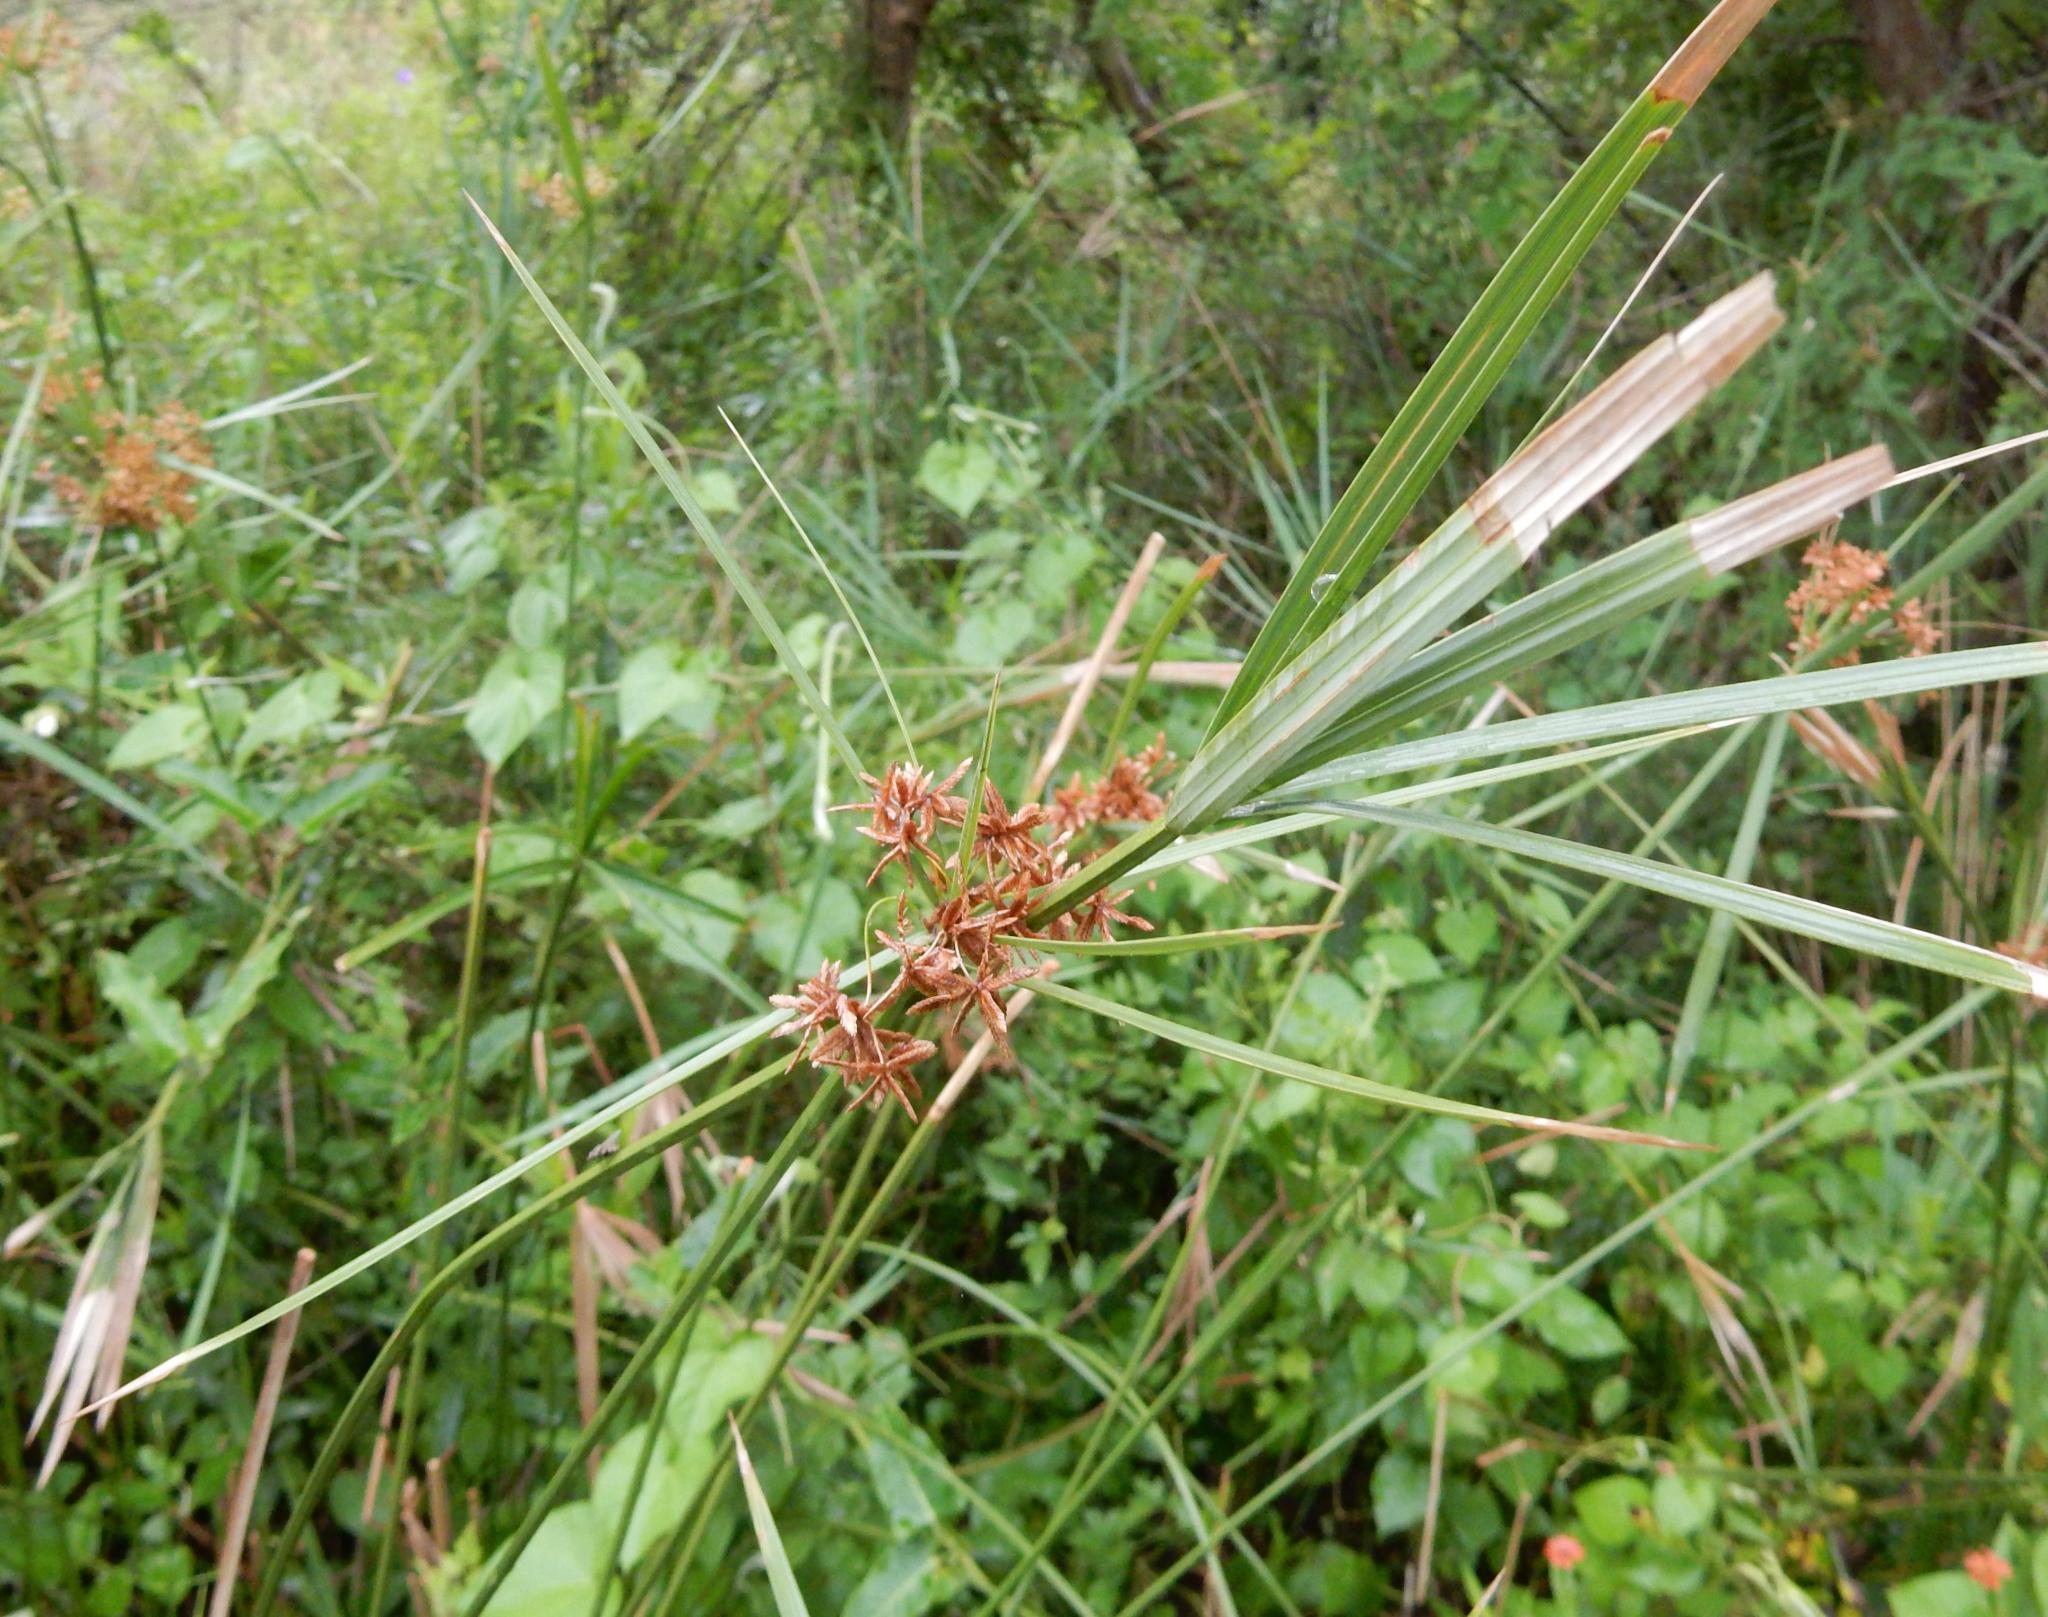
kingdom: Plantae
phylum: Tracheophyta
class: Liliopsida
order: Poales
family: Cyperaceae
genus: Cyperus
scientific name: Cyperus sexangularis
